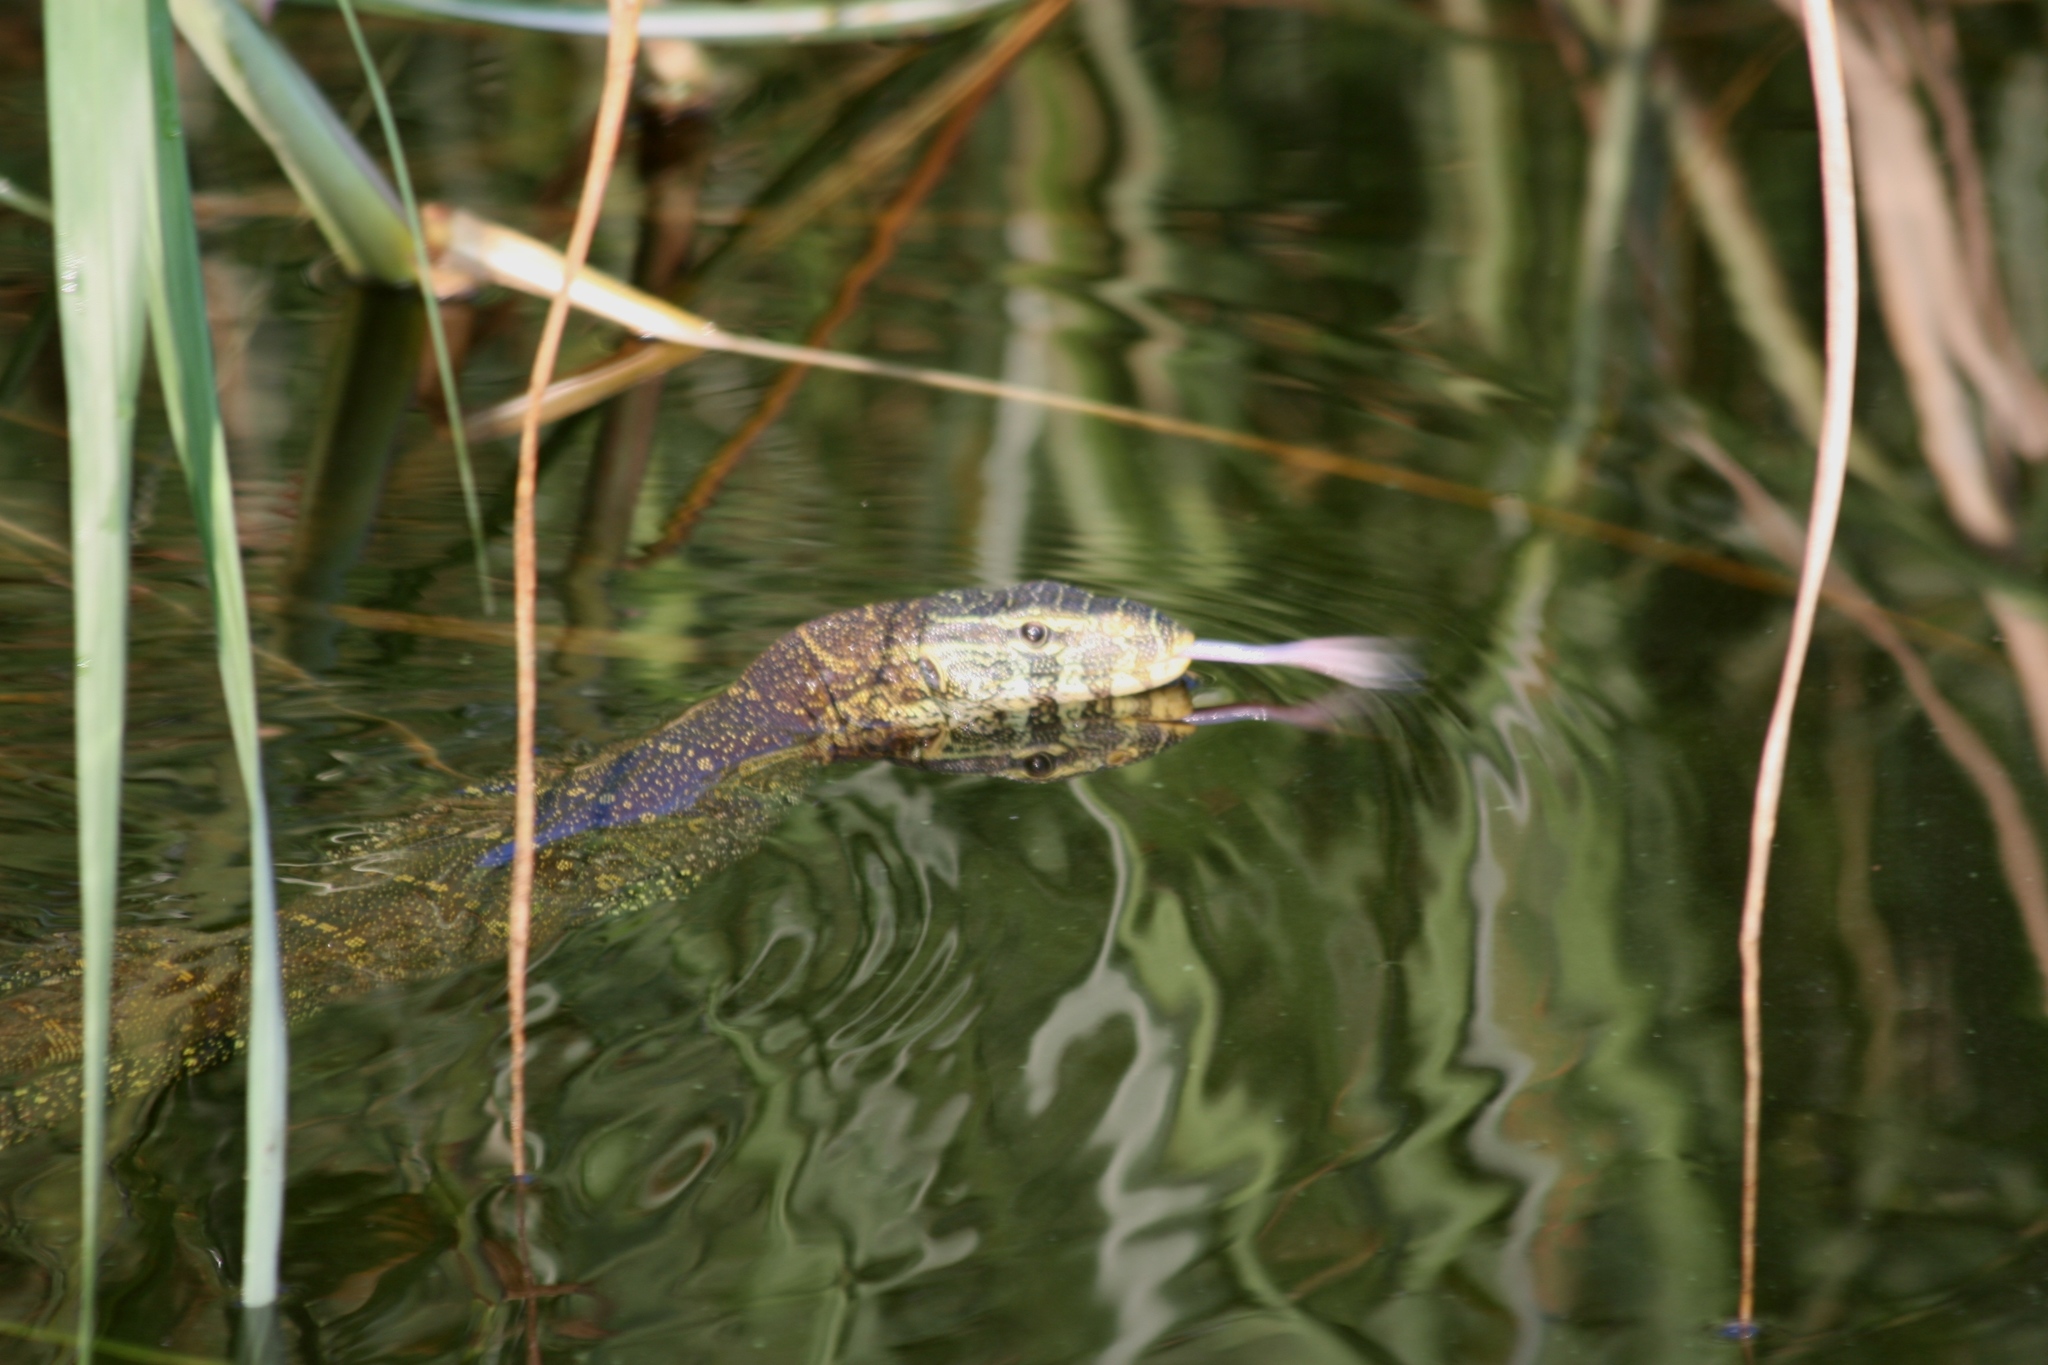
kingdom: Animalia
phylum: Chordata
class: Squamata
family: Varanidae
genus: Varanus
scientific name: Varanus niloticus
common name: Nile monitor
